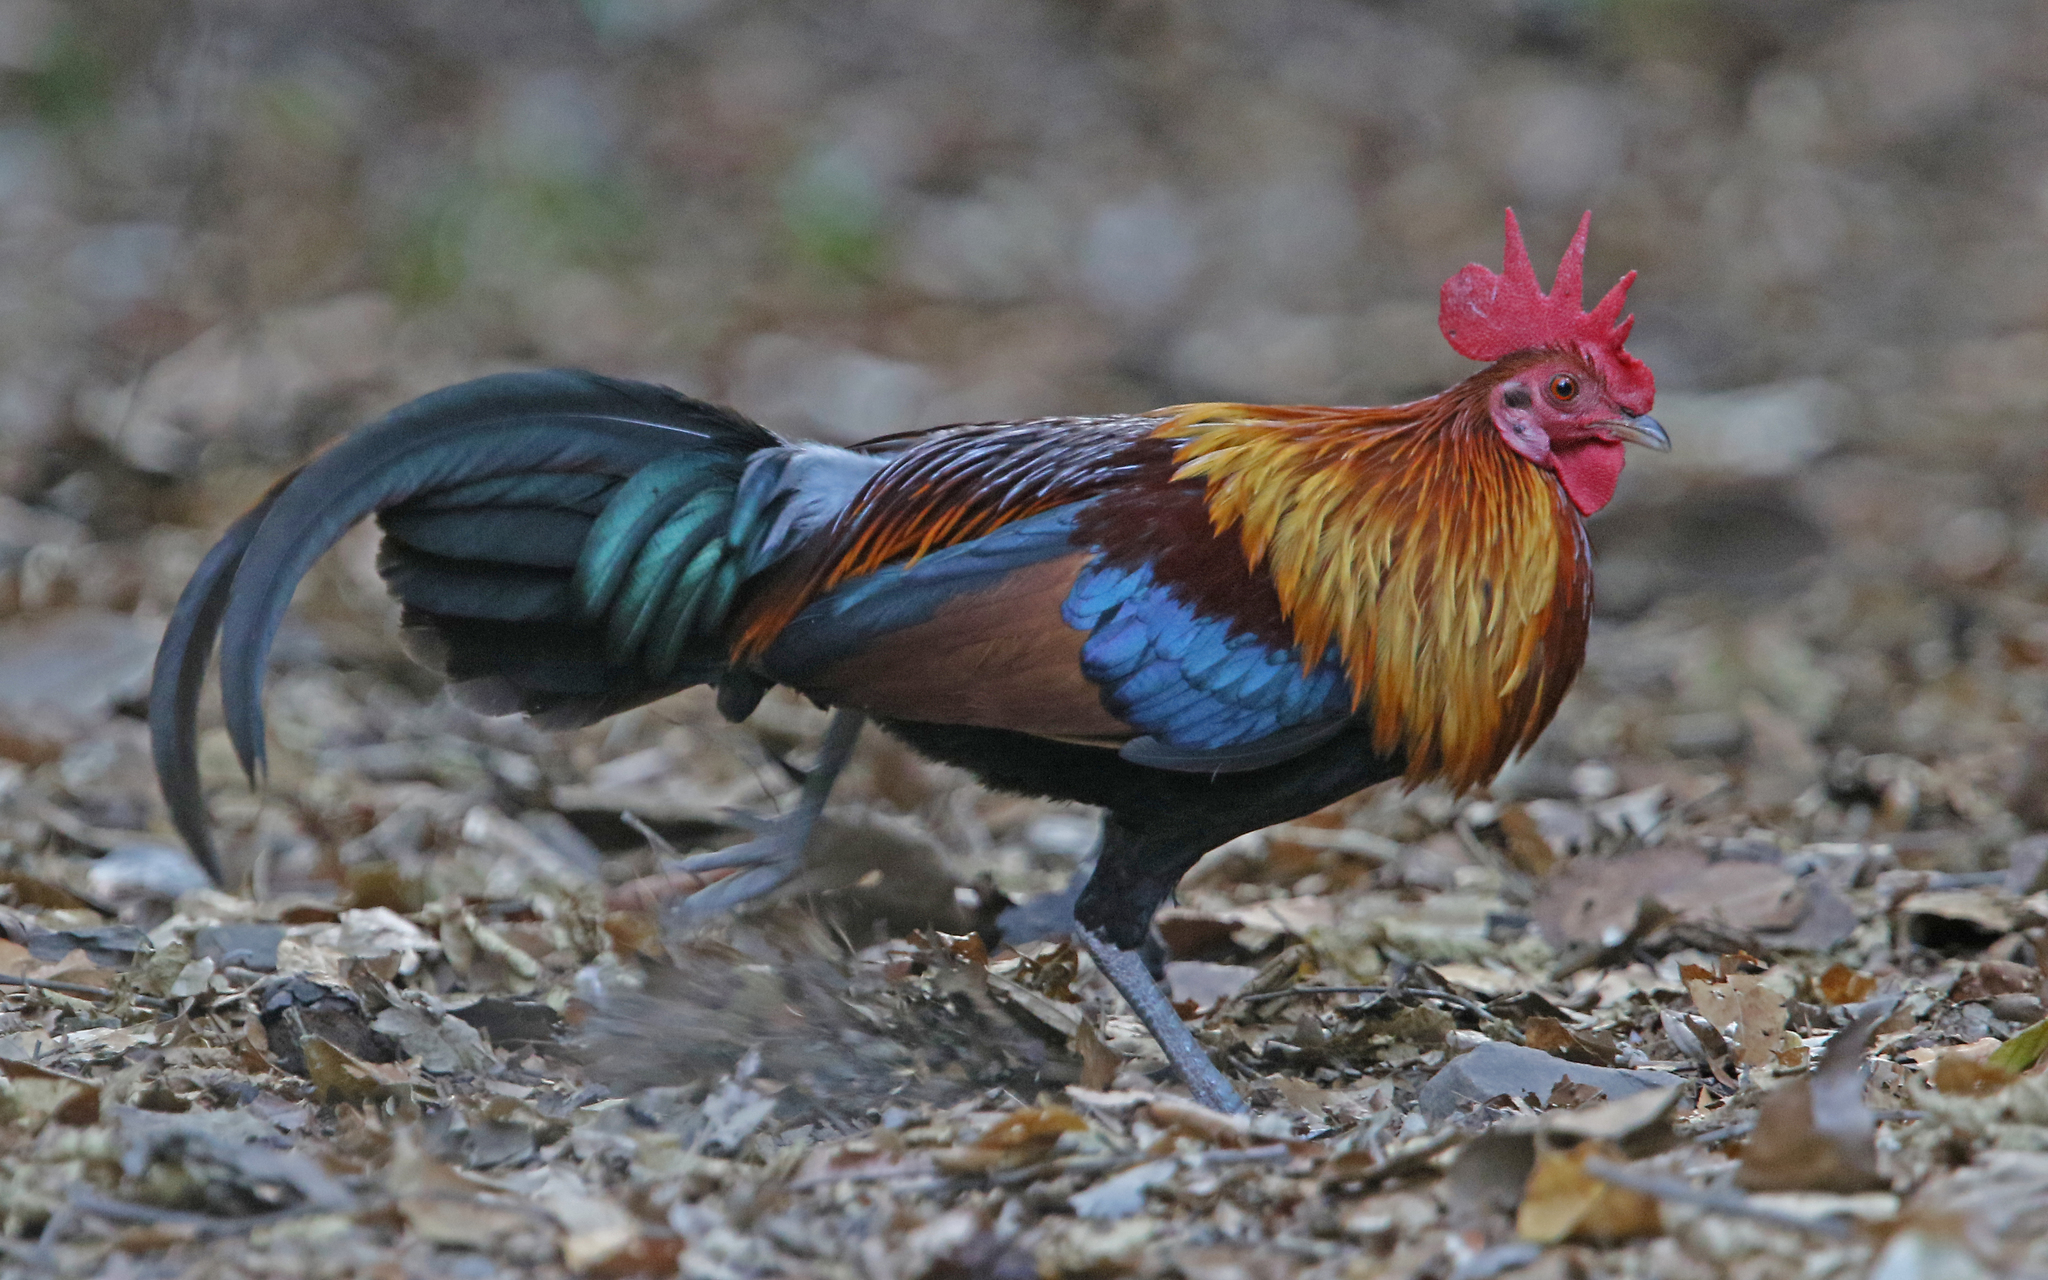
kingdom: Animalia
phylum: Chordata
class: Aves
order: Galliformes
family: Phasianidae
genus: Gallus
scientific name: Gallus gallus
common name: Red junglefowl
